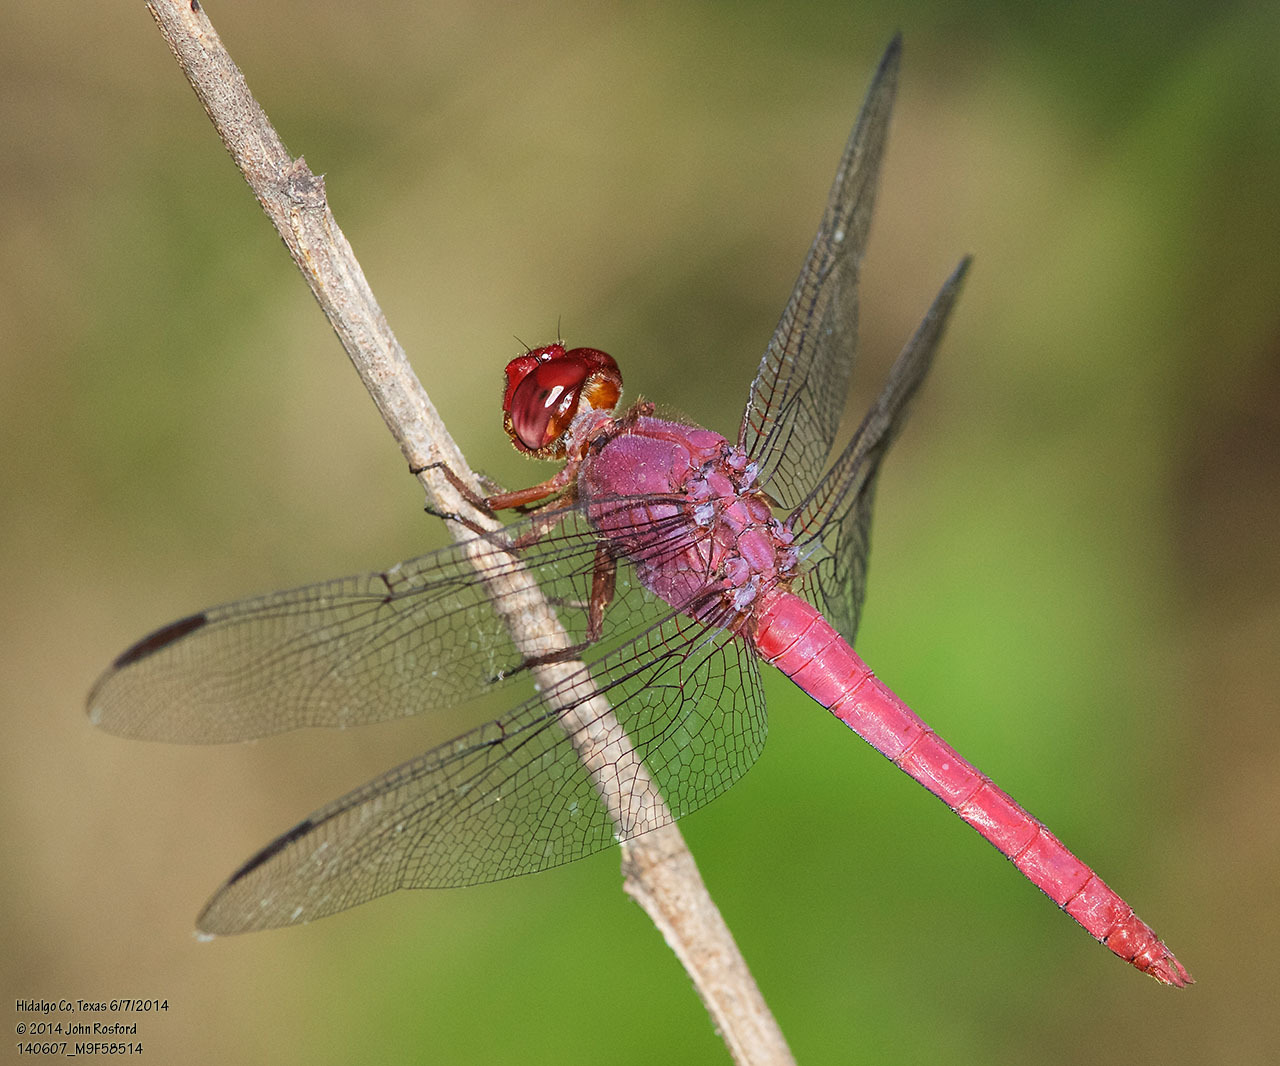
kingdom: Animalia
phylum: Arthropoda
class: Insecta
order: Odonata
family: Libellulidae
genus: Orthemis
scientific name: Orthemis discolor
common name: Carmine skimmer
